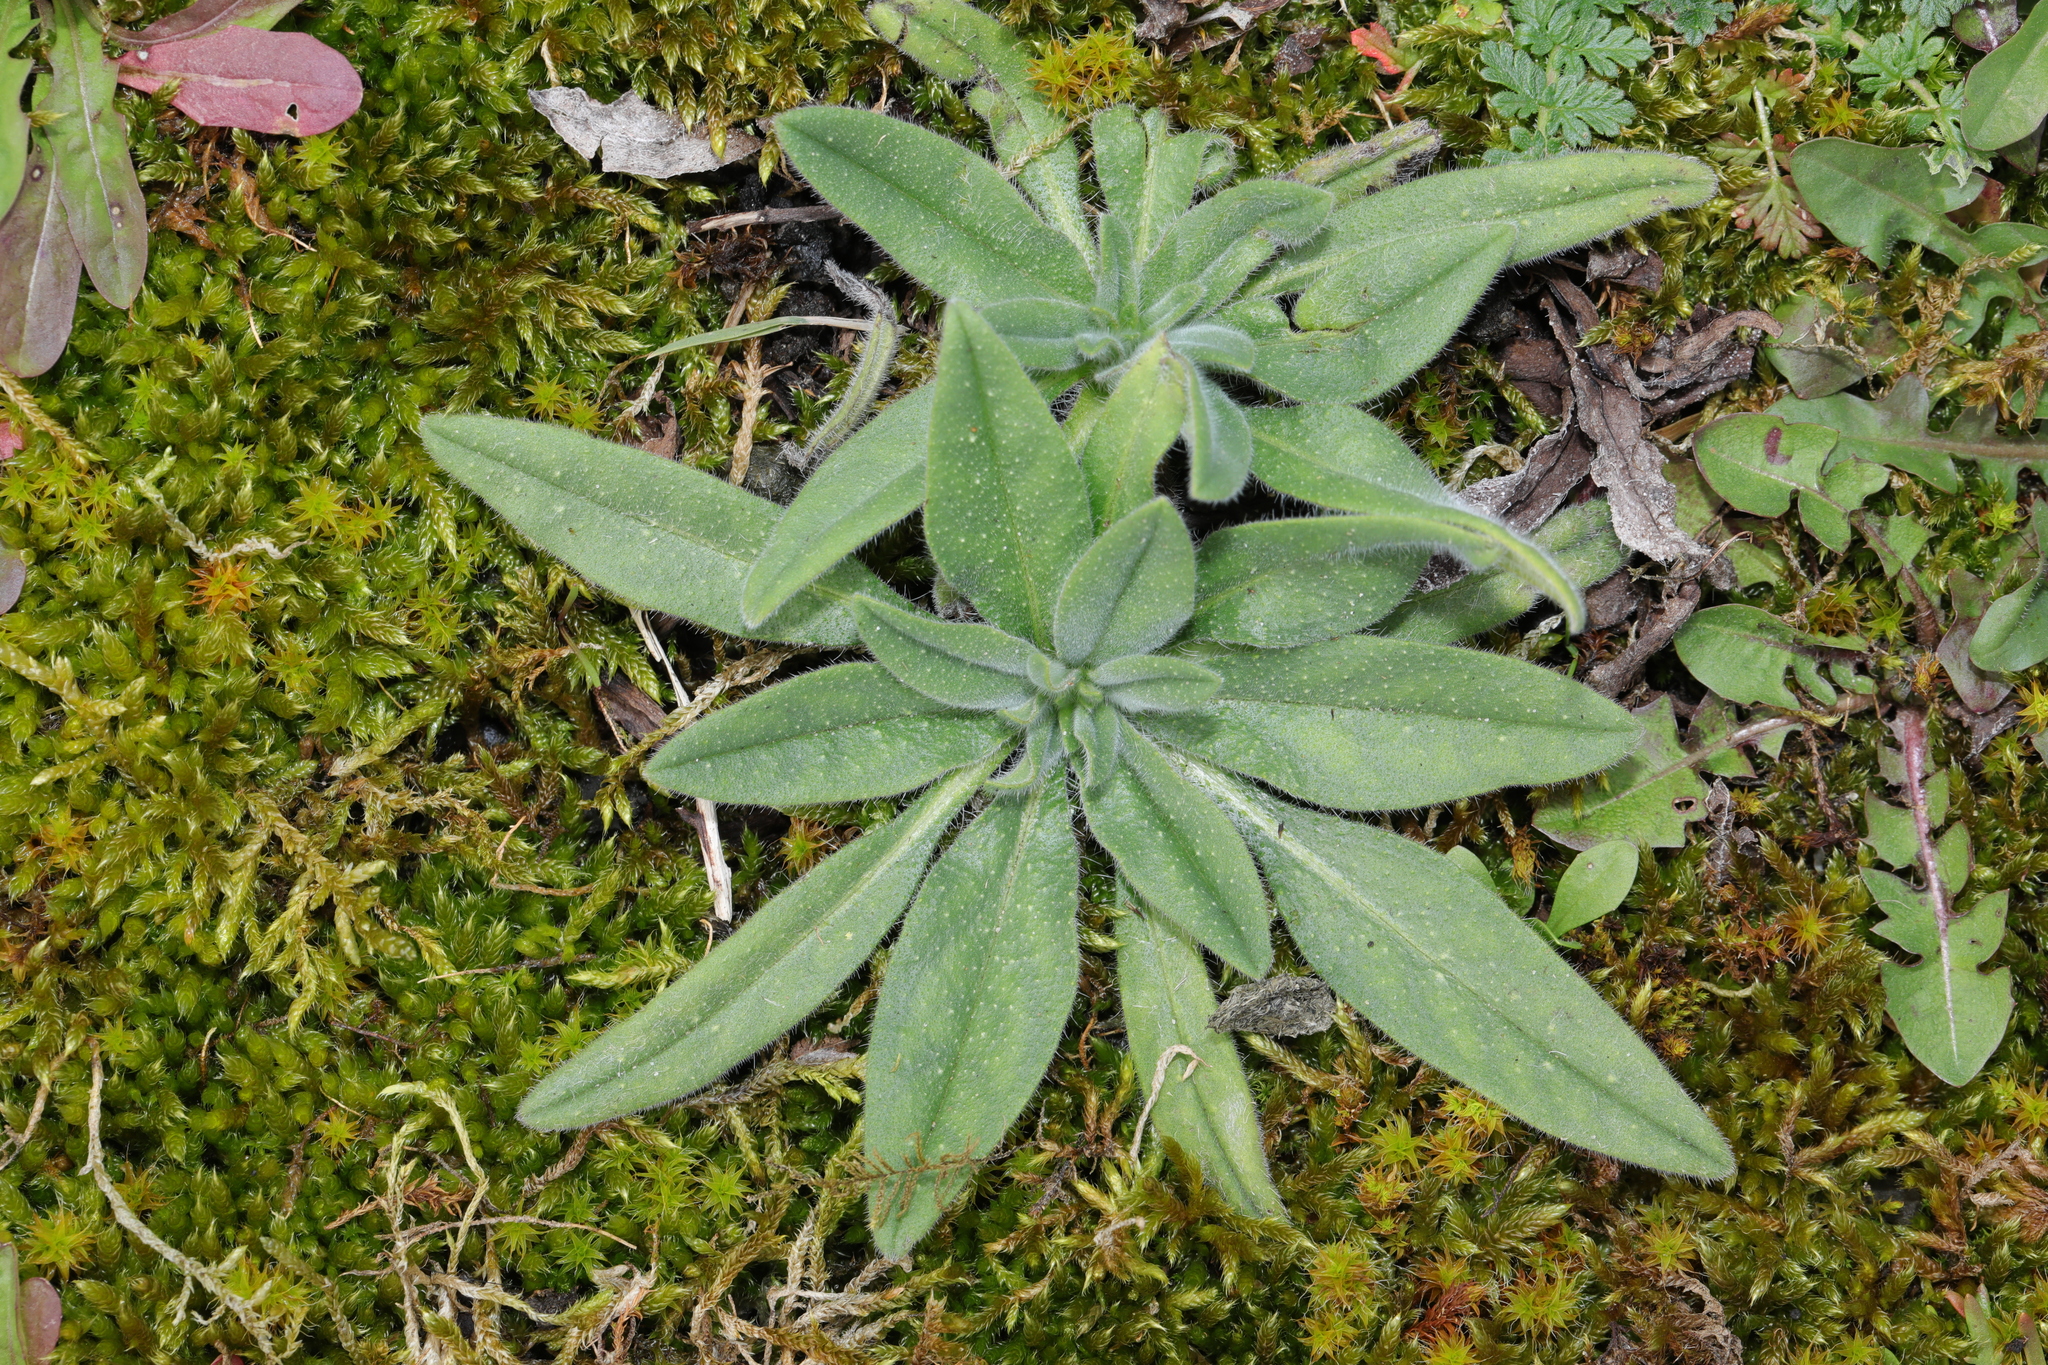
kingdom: Plantae
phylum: Tracheophyta
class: Magnoliopsida
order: Boraginales
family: Boraginaceae
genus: Echium
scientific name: Echium vulgare
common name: Common viper's bugloss
